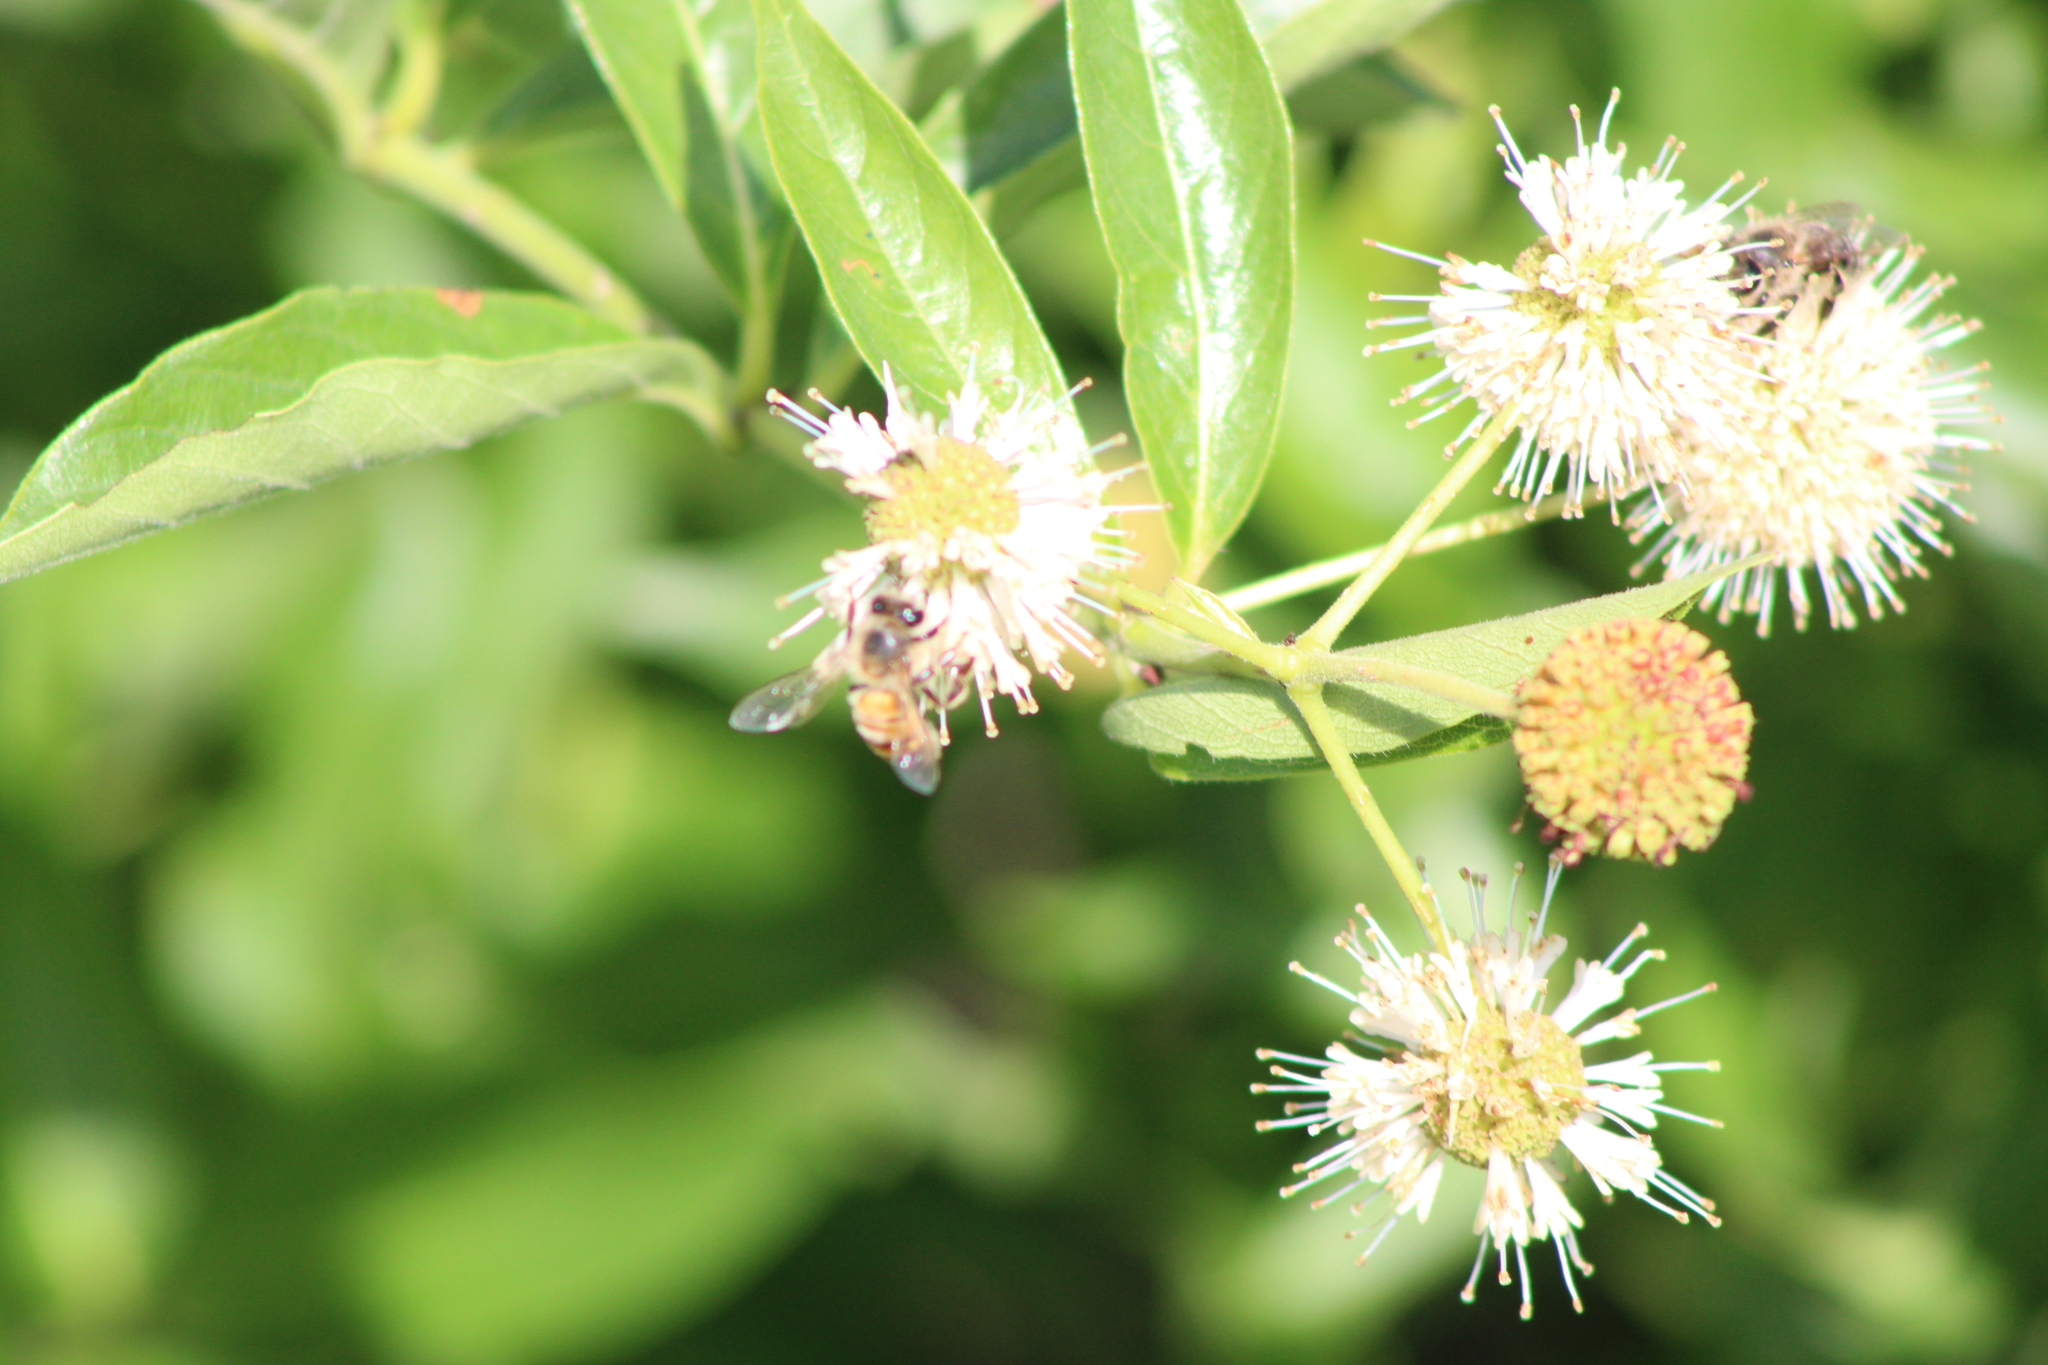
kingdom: Animalia
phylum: Arthropoda
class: Insecta
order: Hymenoptera
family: Apidae
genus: Apis
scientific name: Apis mellifera
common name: Honey bee
